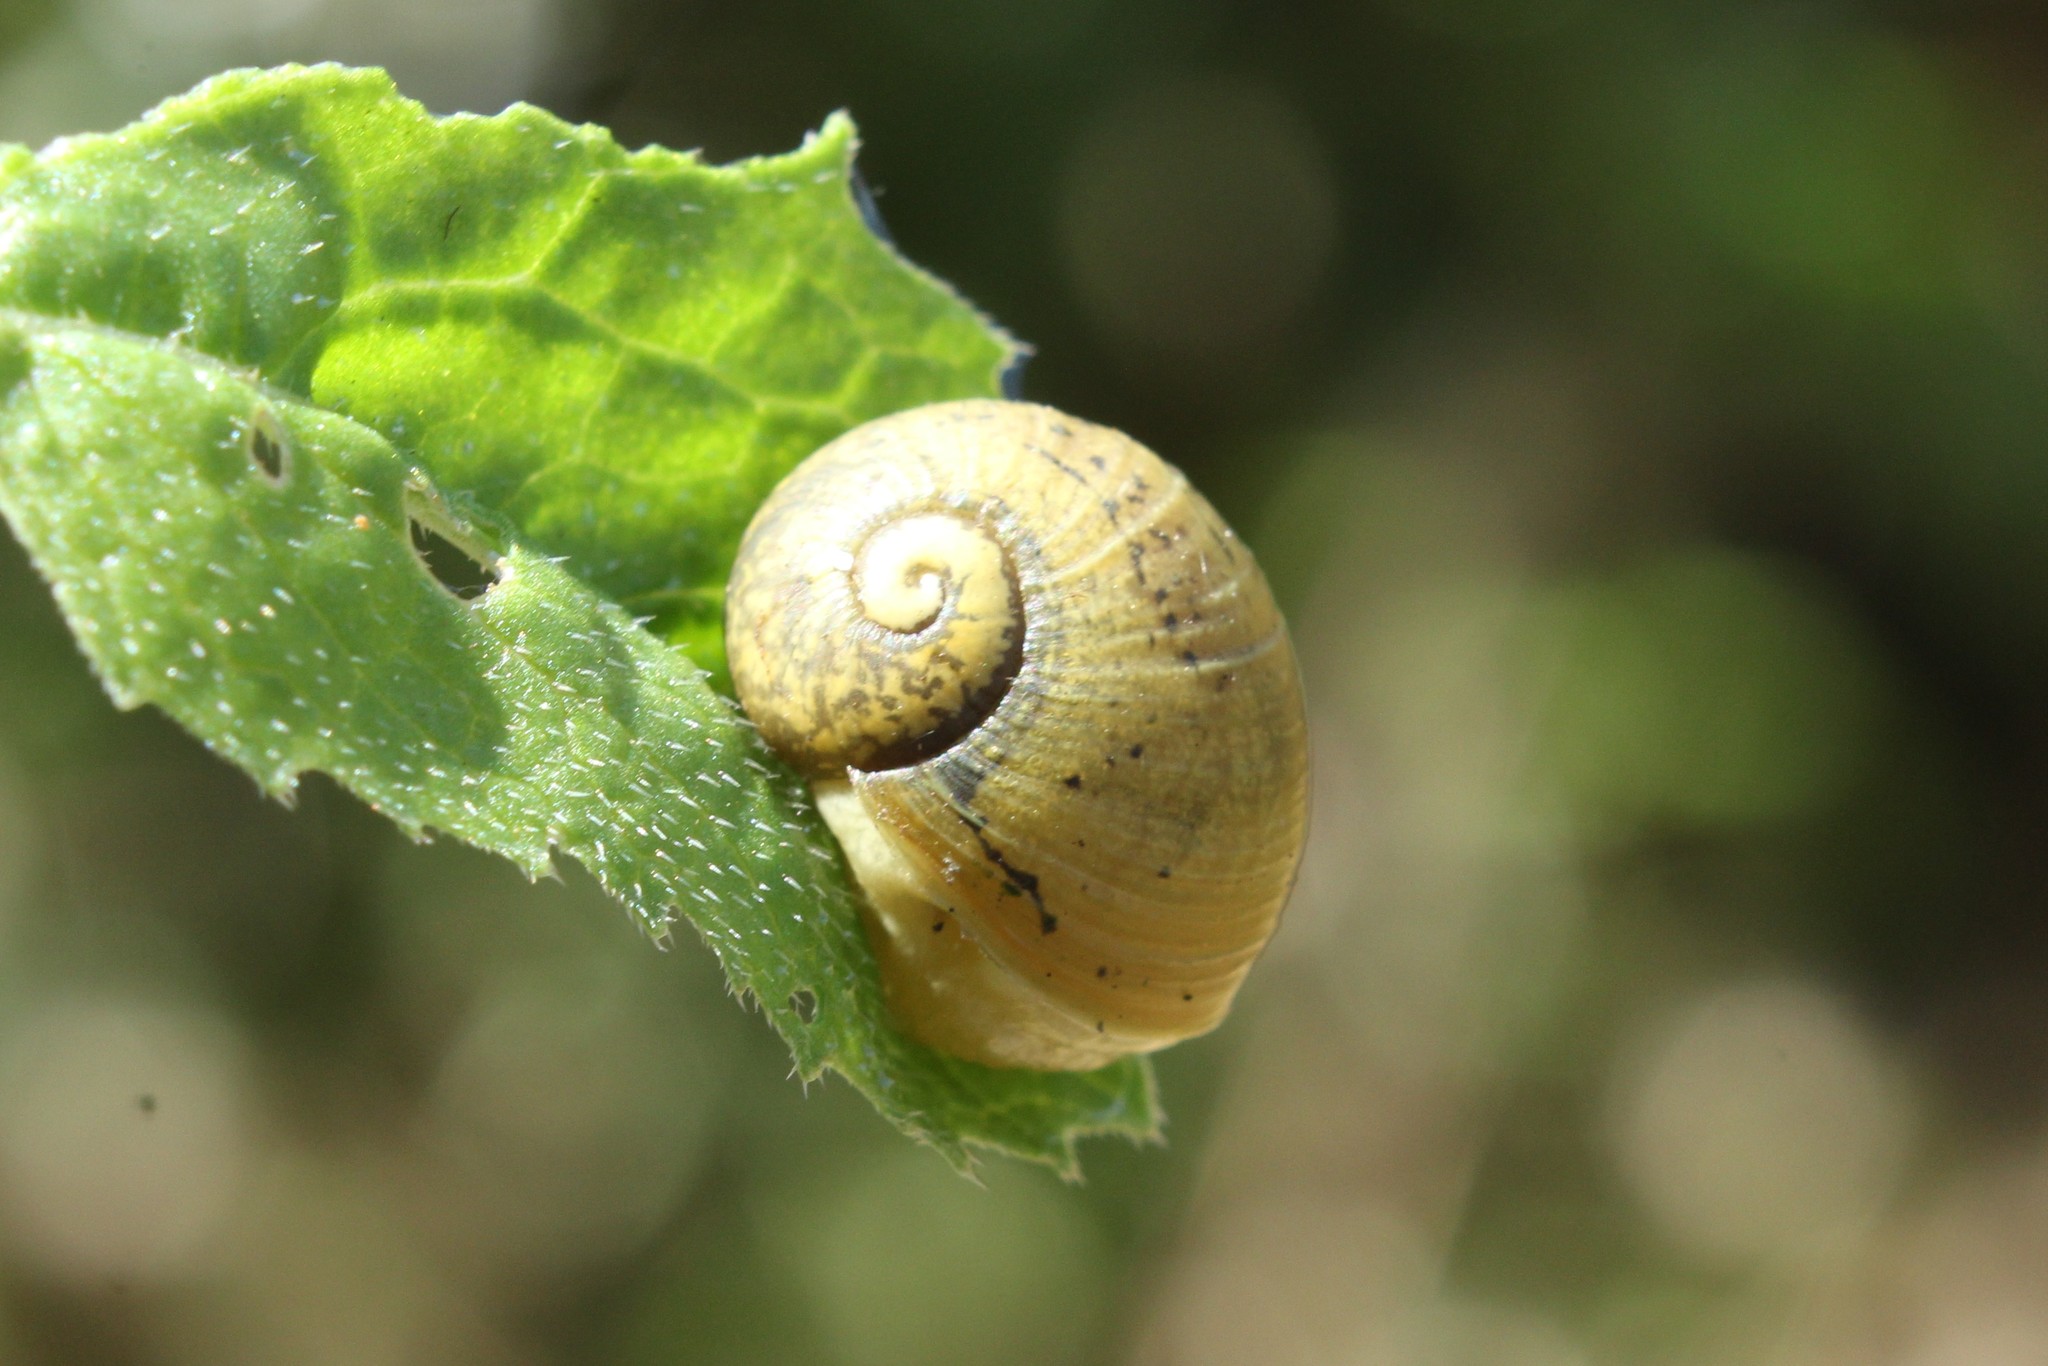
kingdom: Animalia
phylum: Mollusca
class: Gastropoda
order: Stylommatophora
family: Helicidae
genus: Cantareus
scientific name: Cantareus apertus
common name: Green gardensnail
